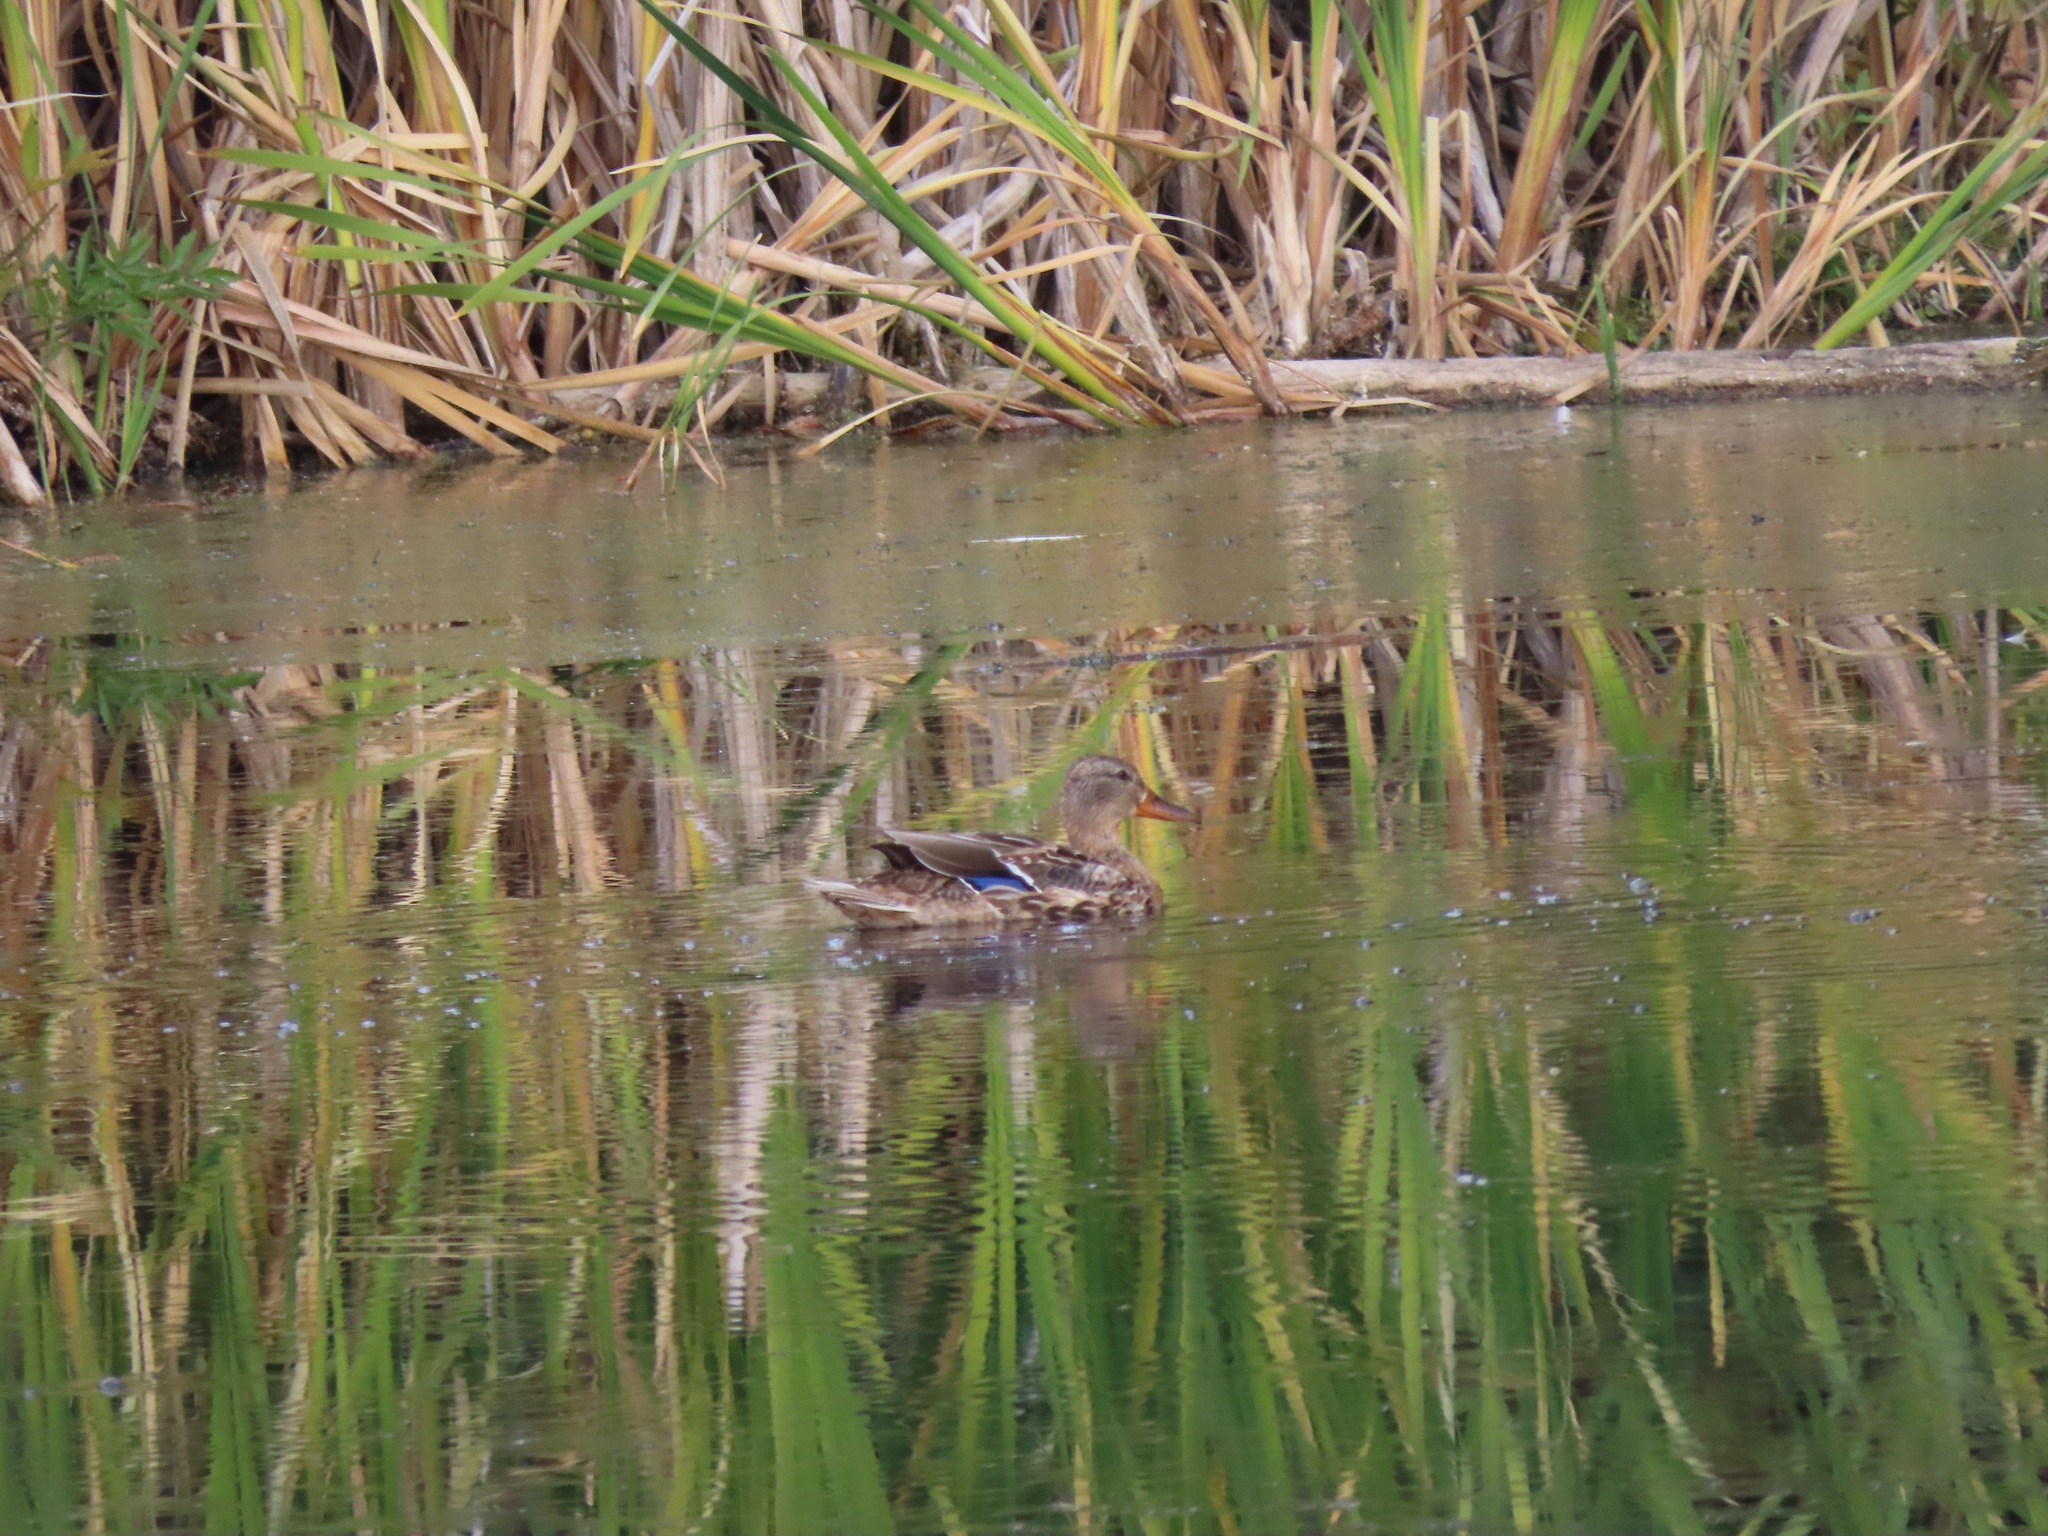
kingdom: Animalia
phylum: Chordata
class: Aves
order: Anseriformes
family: Anatidae
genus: Anas
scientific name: Anas platyrhynchos
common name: Mallard
